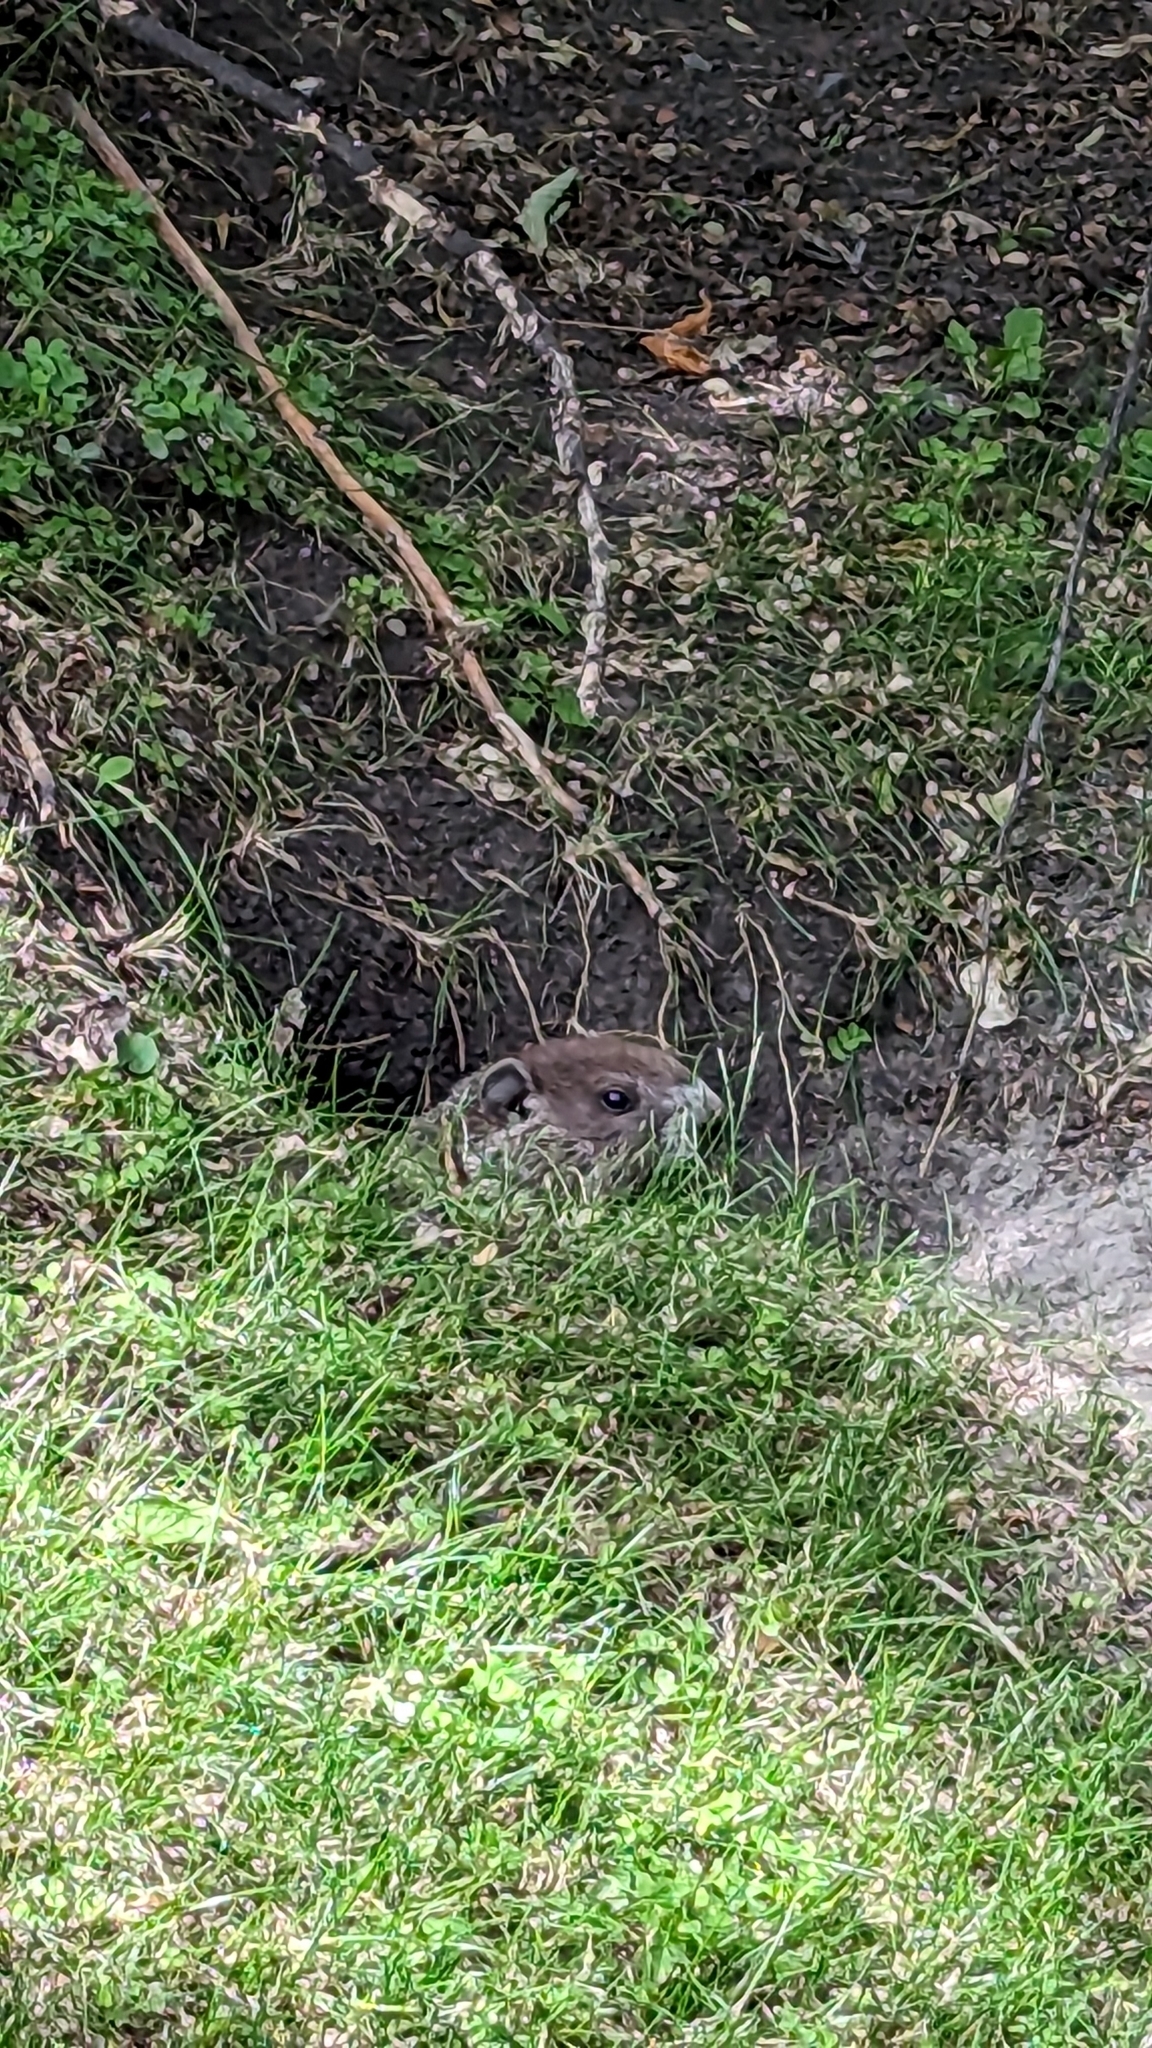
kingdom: Animalia
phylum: Chordata
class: Mammalia
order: Rodentia
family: Sciuridae
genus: Marmota
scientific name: Marmota monax
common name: Groundhog
